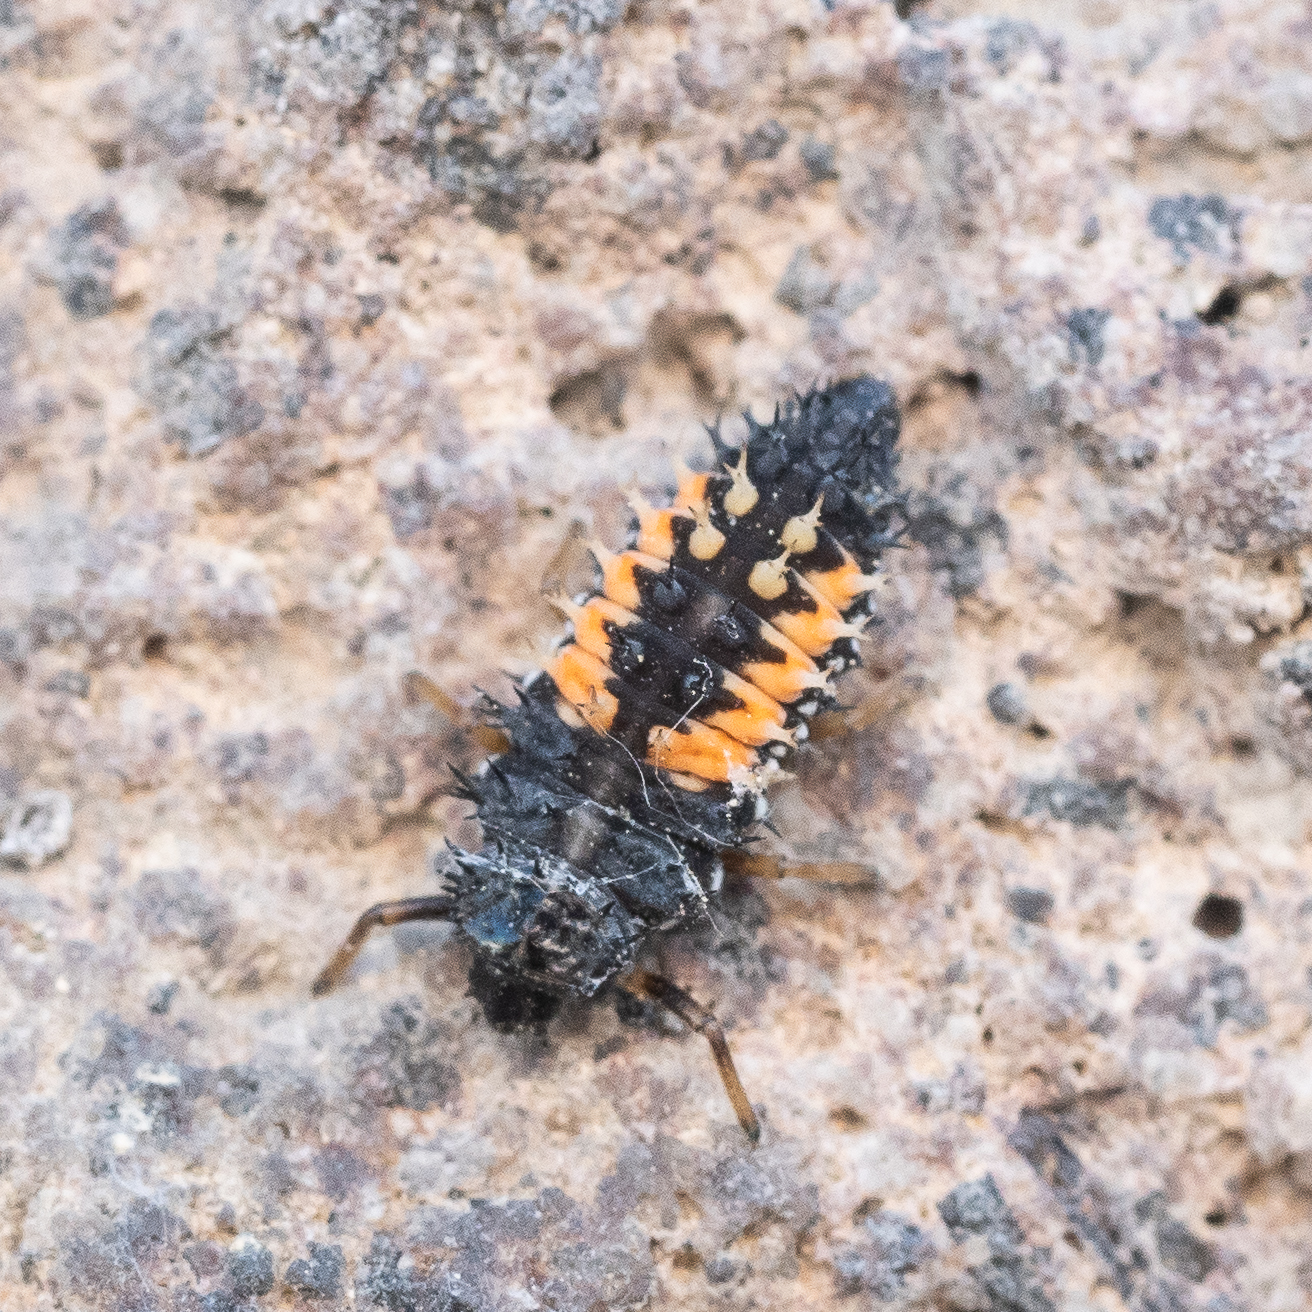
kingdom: Animalia
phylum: Arthropoda
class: Insecta
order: Coleoptera
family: Coccinellidae
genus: Harmonia
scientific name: Harmonia axyridis
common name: Harlequin ladybird
